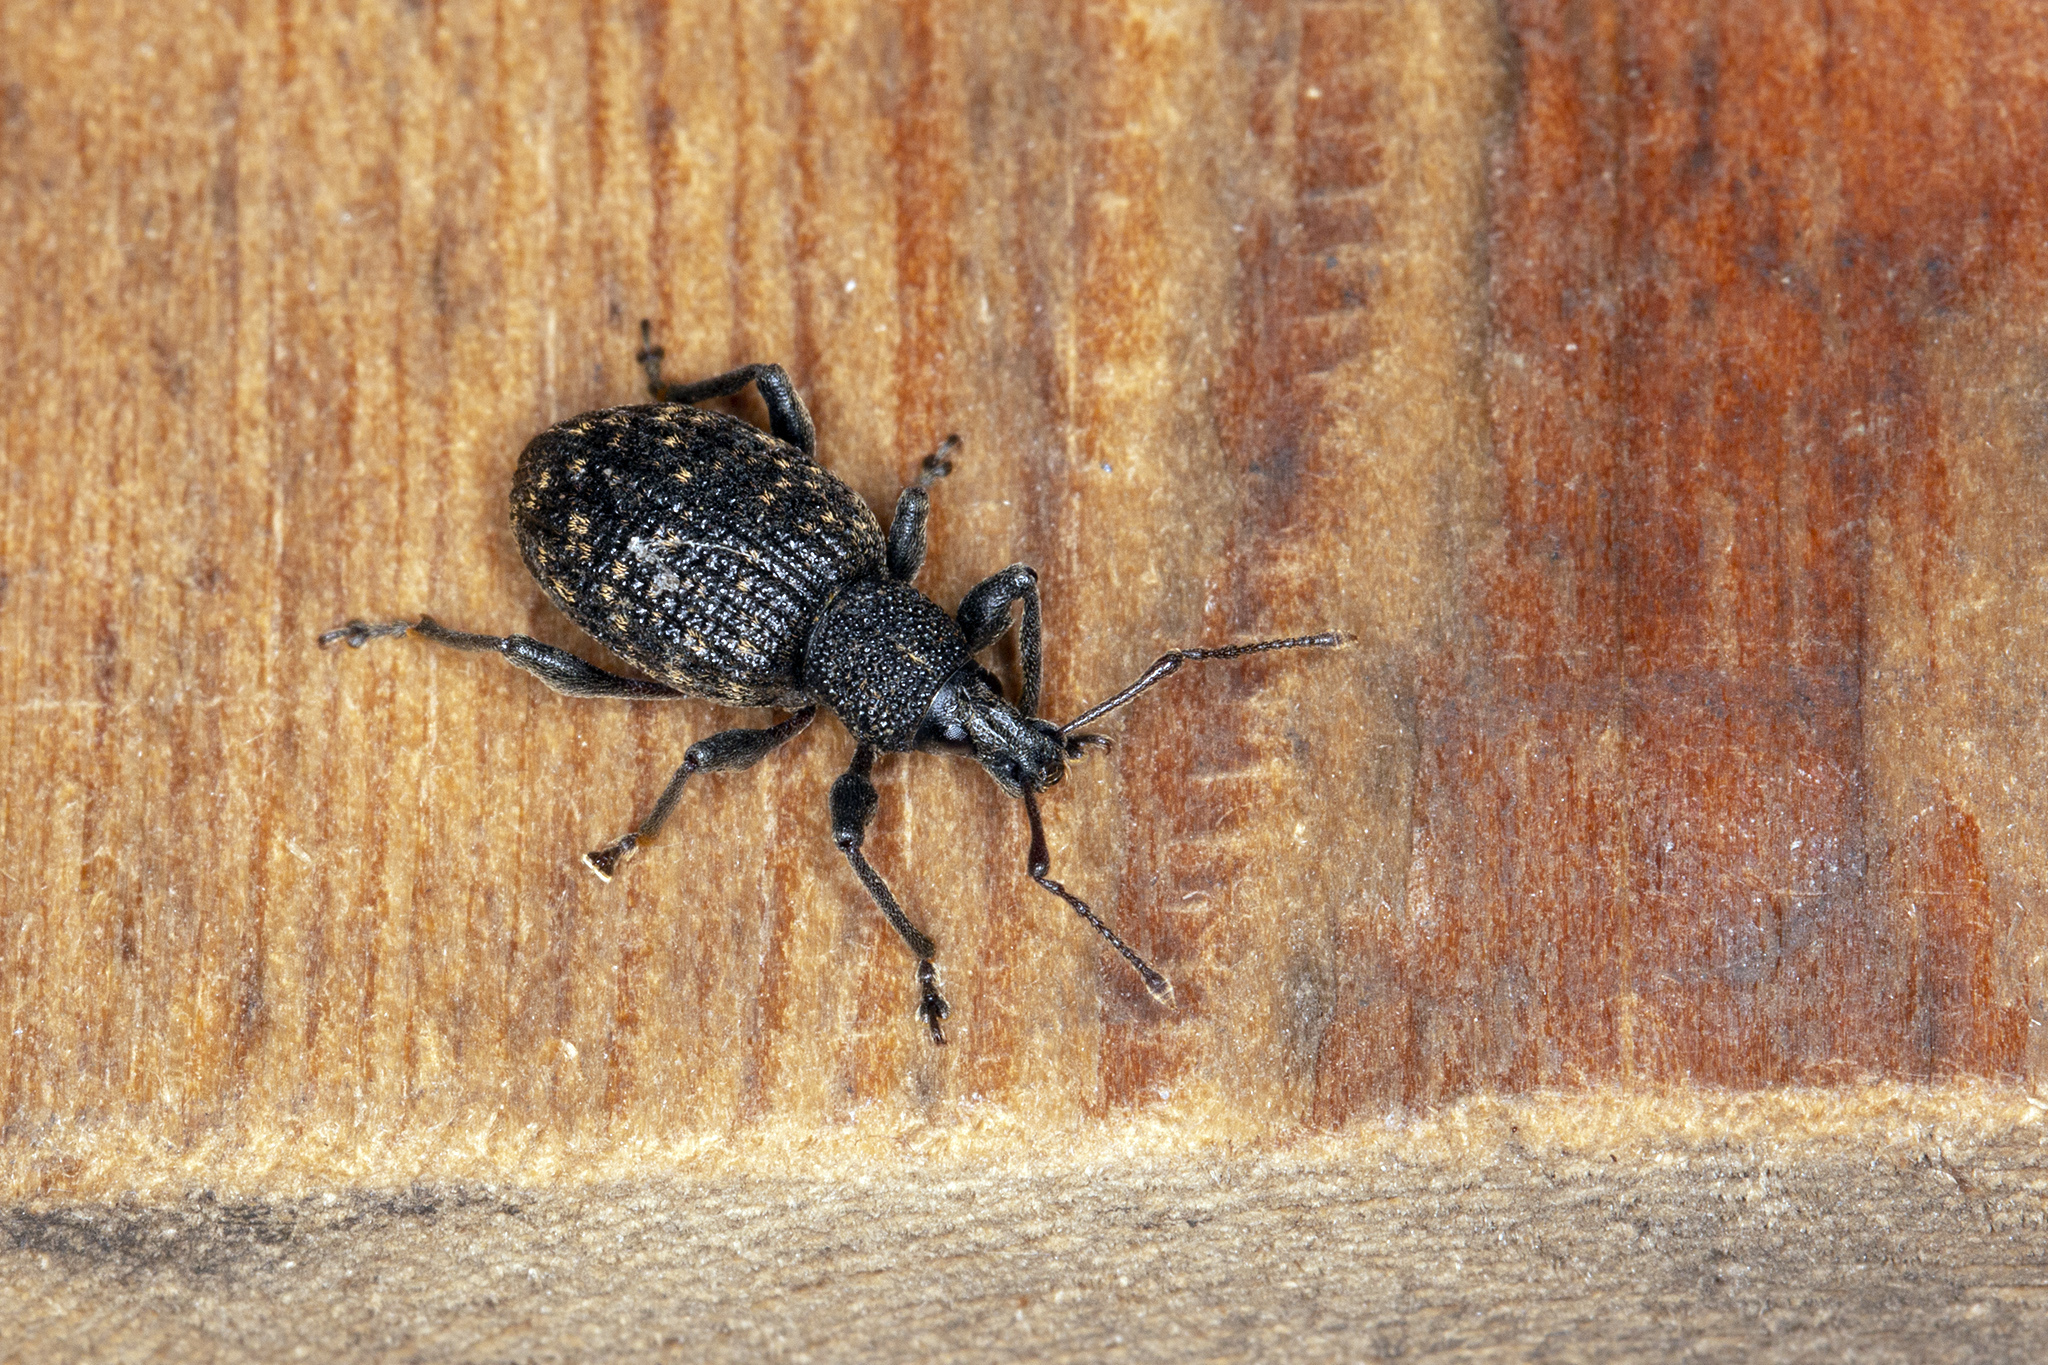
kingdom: Animalia
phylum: Arthropoda
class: Insecta
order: Coleoptera
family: Curculionidae
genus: Otiorhynchus
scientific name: Otiorhynchus sulcatus
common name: Black vine weevil
